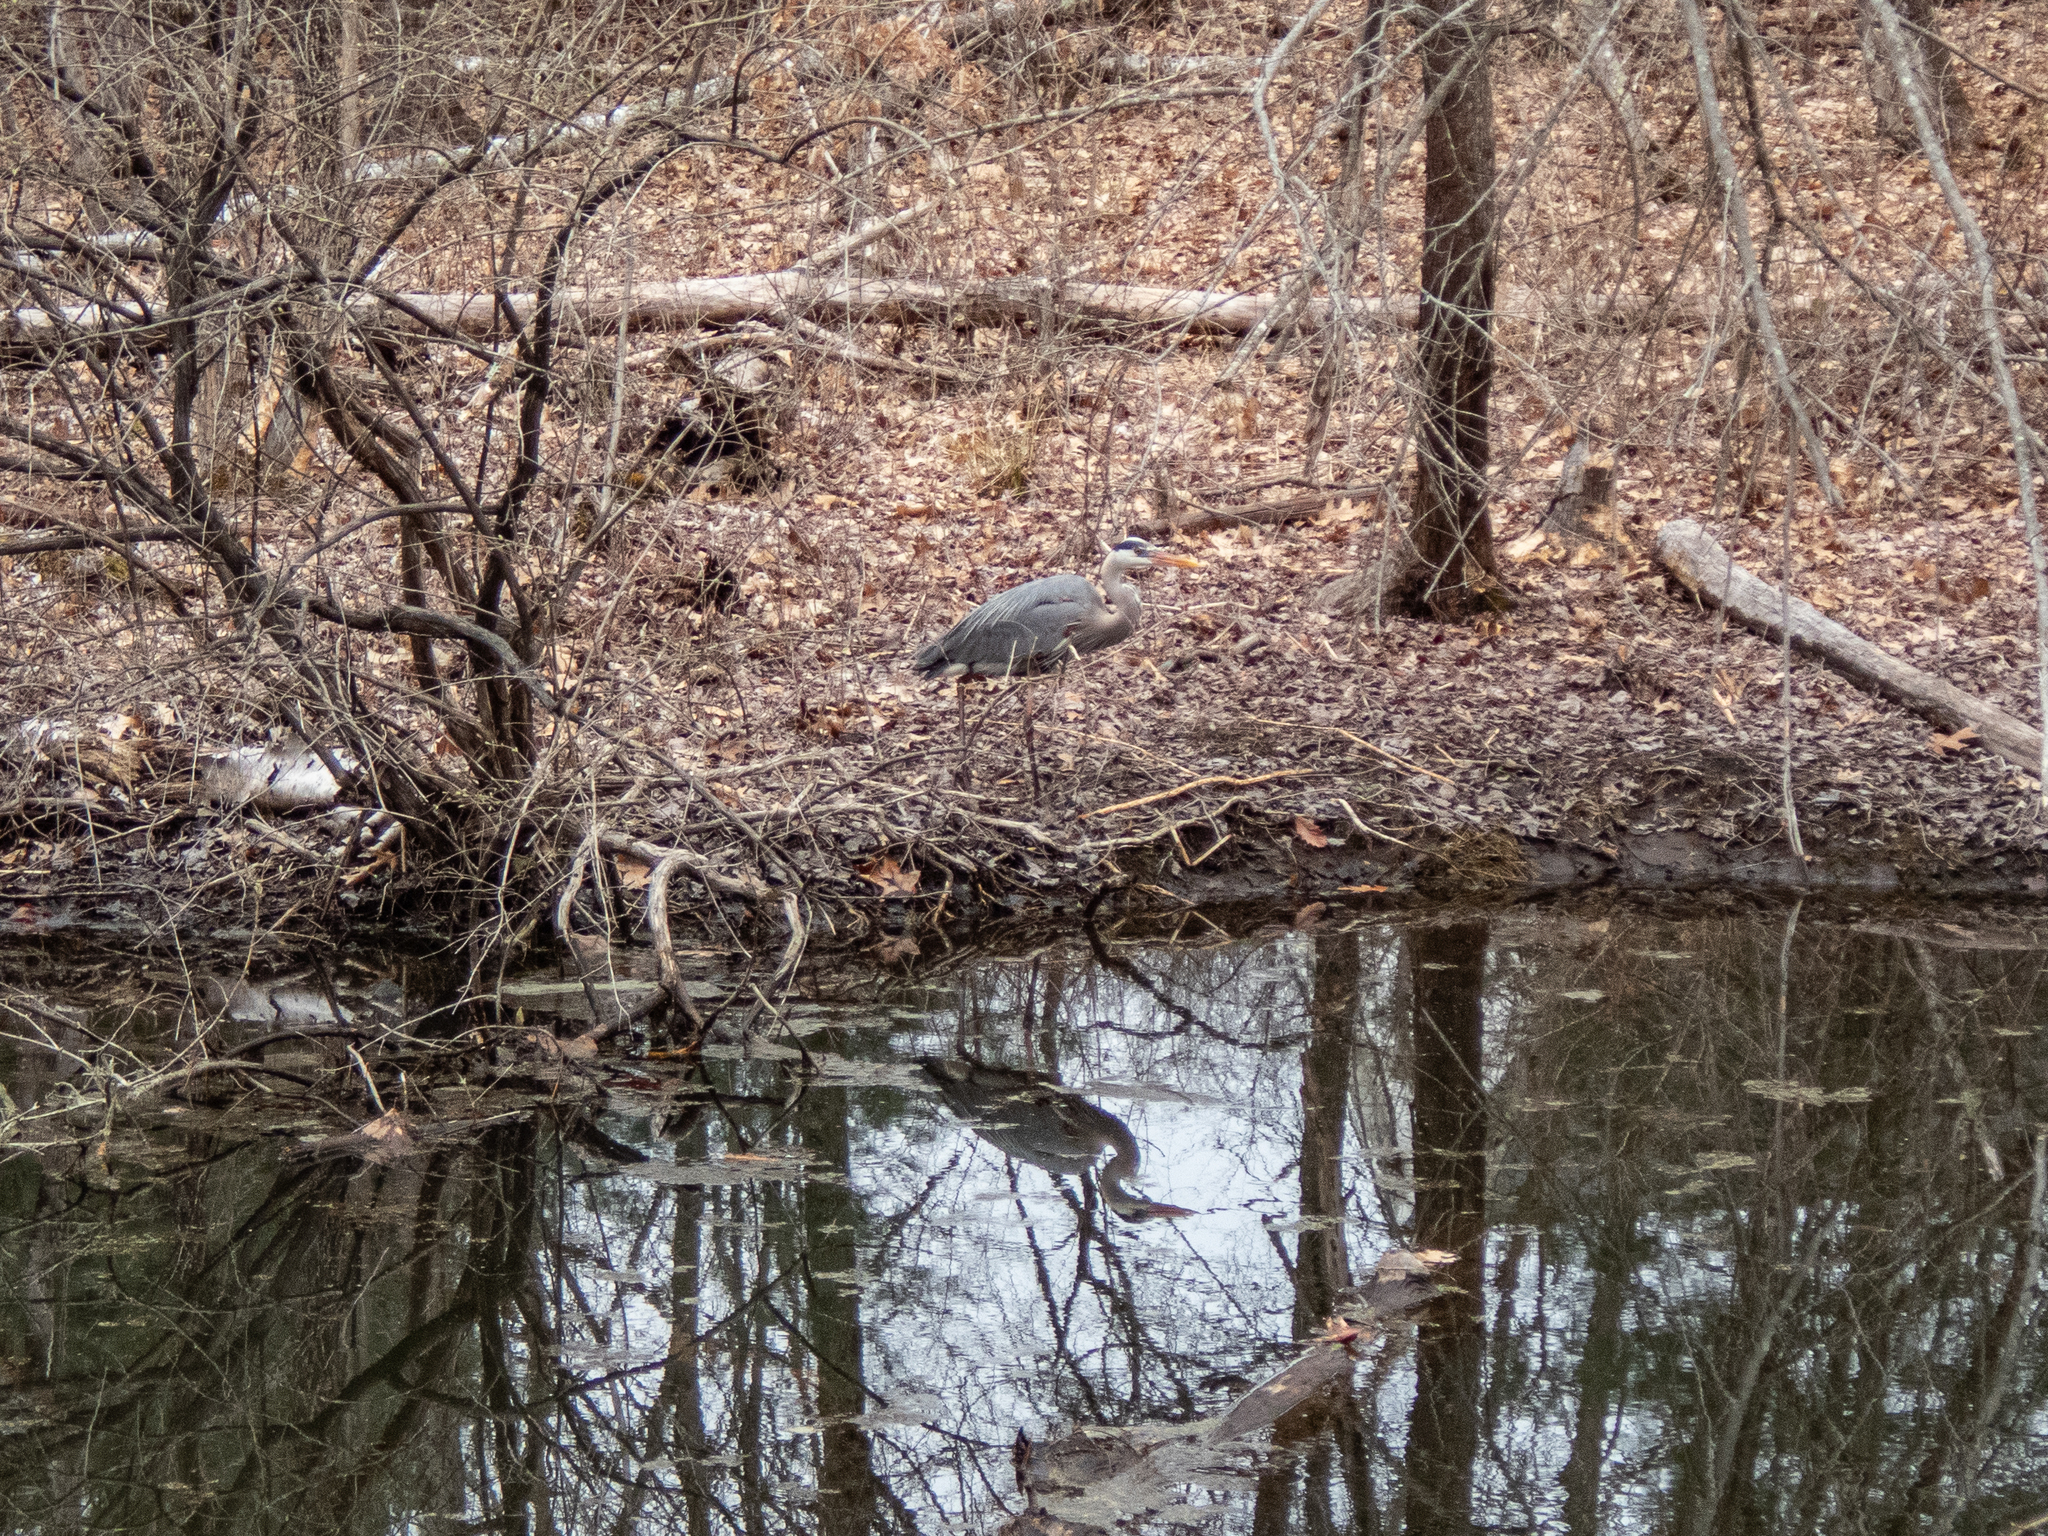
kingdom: Animalia
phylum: Chordata
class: Aves
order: Pelecaniformes
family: Ardeidae
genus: Ardea
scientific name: Ardea herodias
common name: Great blue heron
